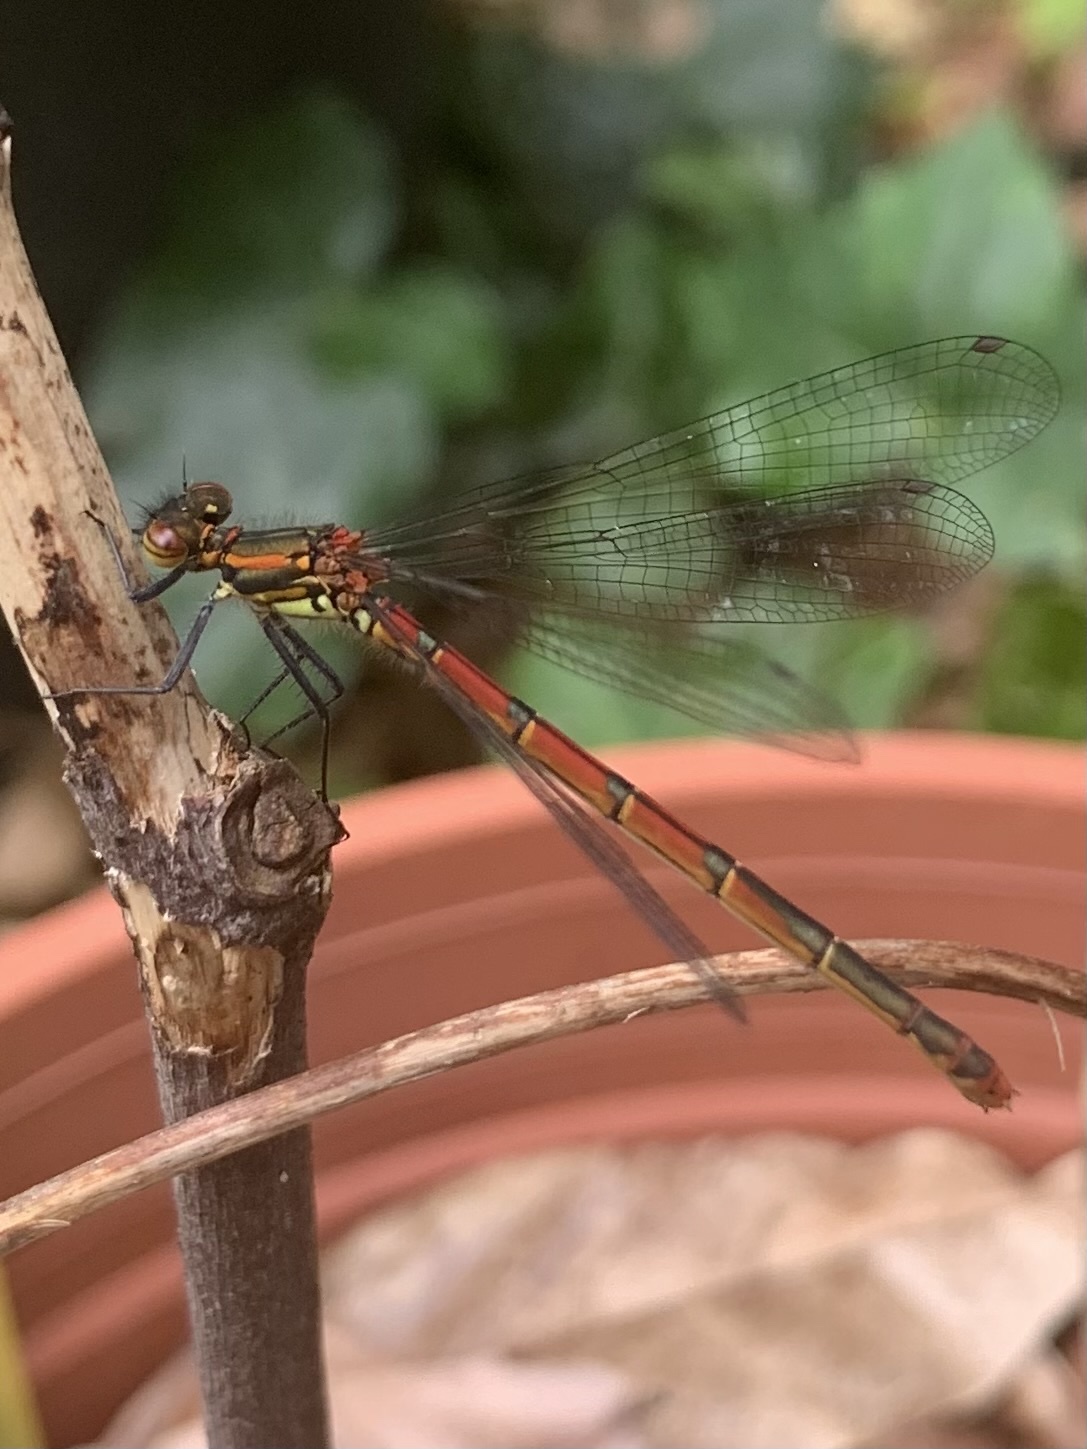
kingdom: Animalia
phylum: Arthropoda
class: Insecta
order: Odonata
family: Coenagrionidae
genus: Pyrrhosoma
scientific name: Pyrrhosoma nymphula
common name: Large red damsel
